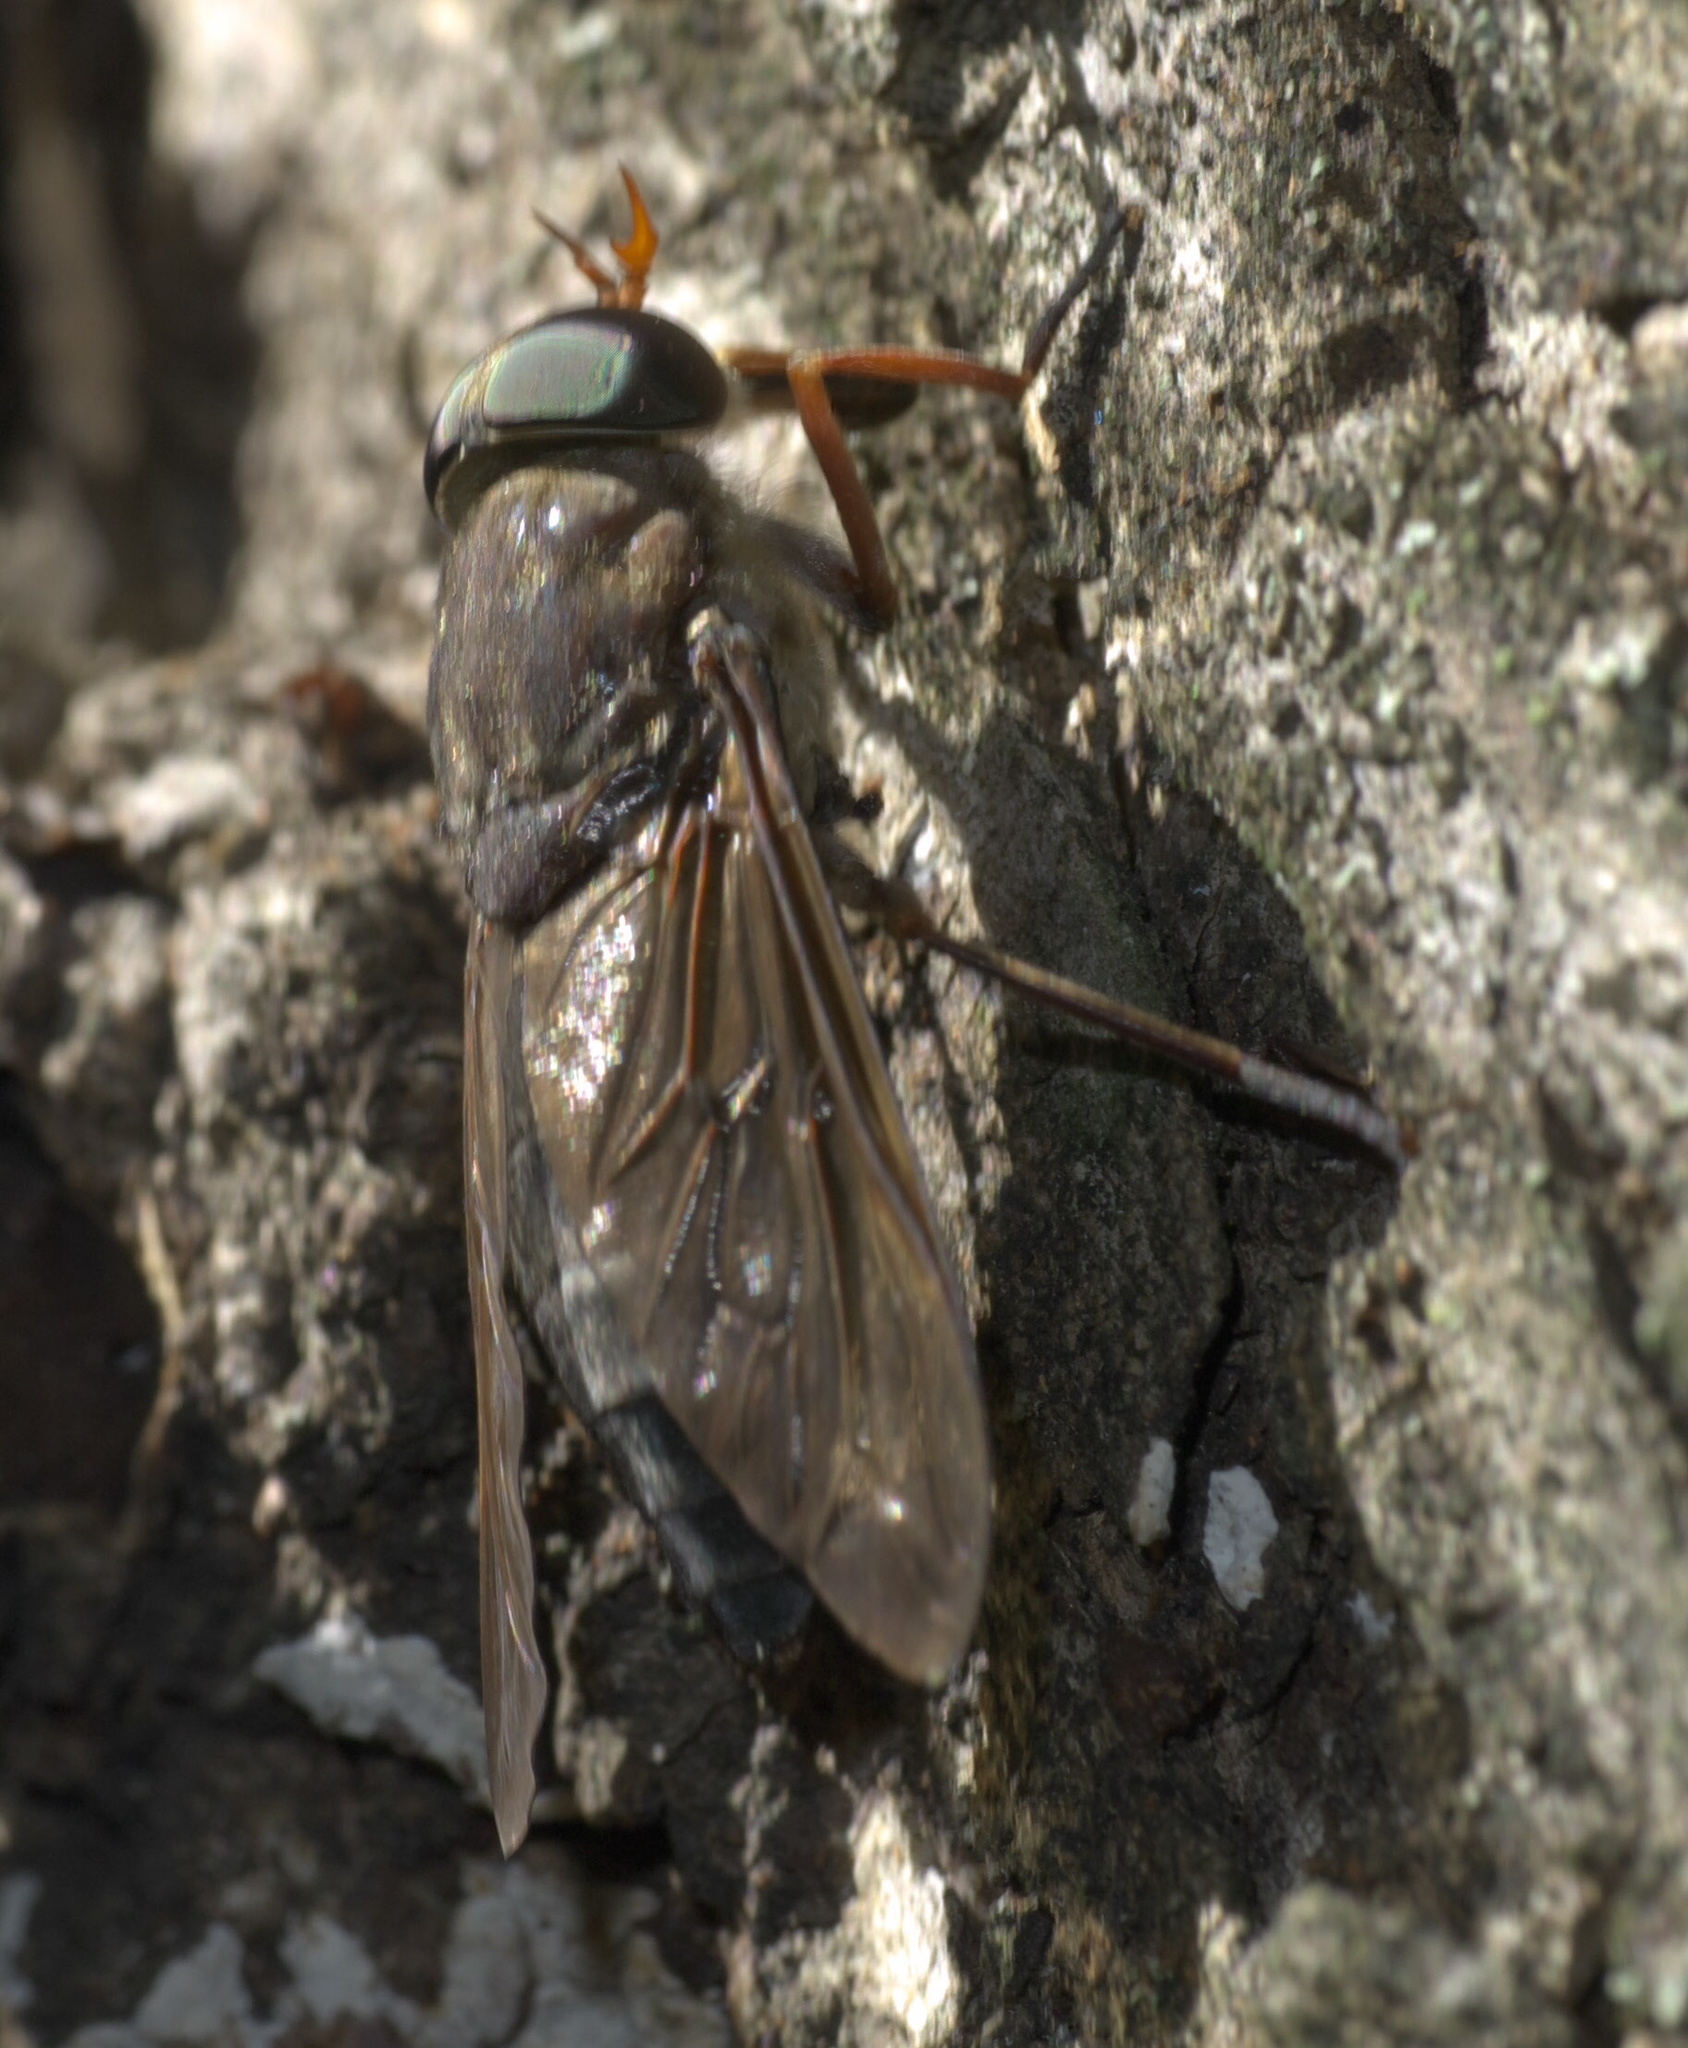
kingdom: Animalia
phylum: Arthropoda
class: Insecta
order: Diptera
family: Tabanidae
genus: Tabanus
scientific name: Tabanus calens
